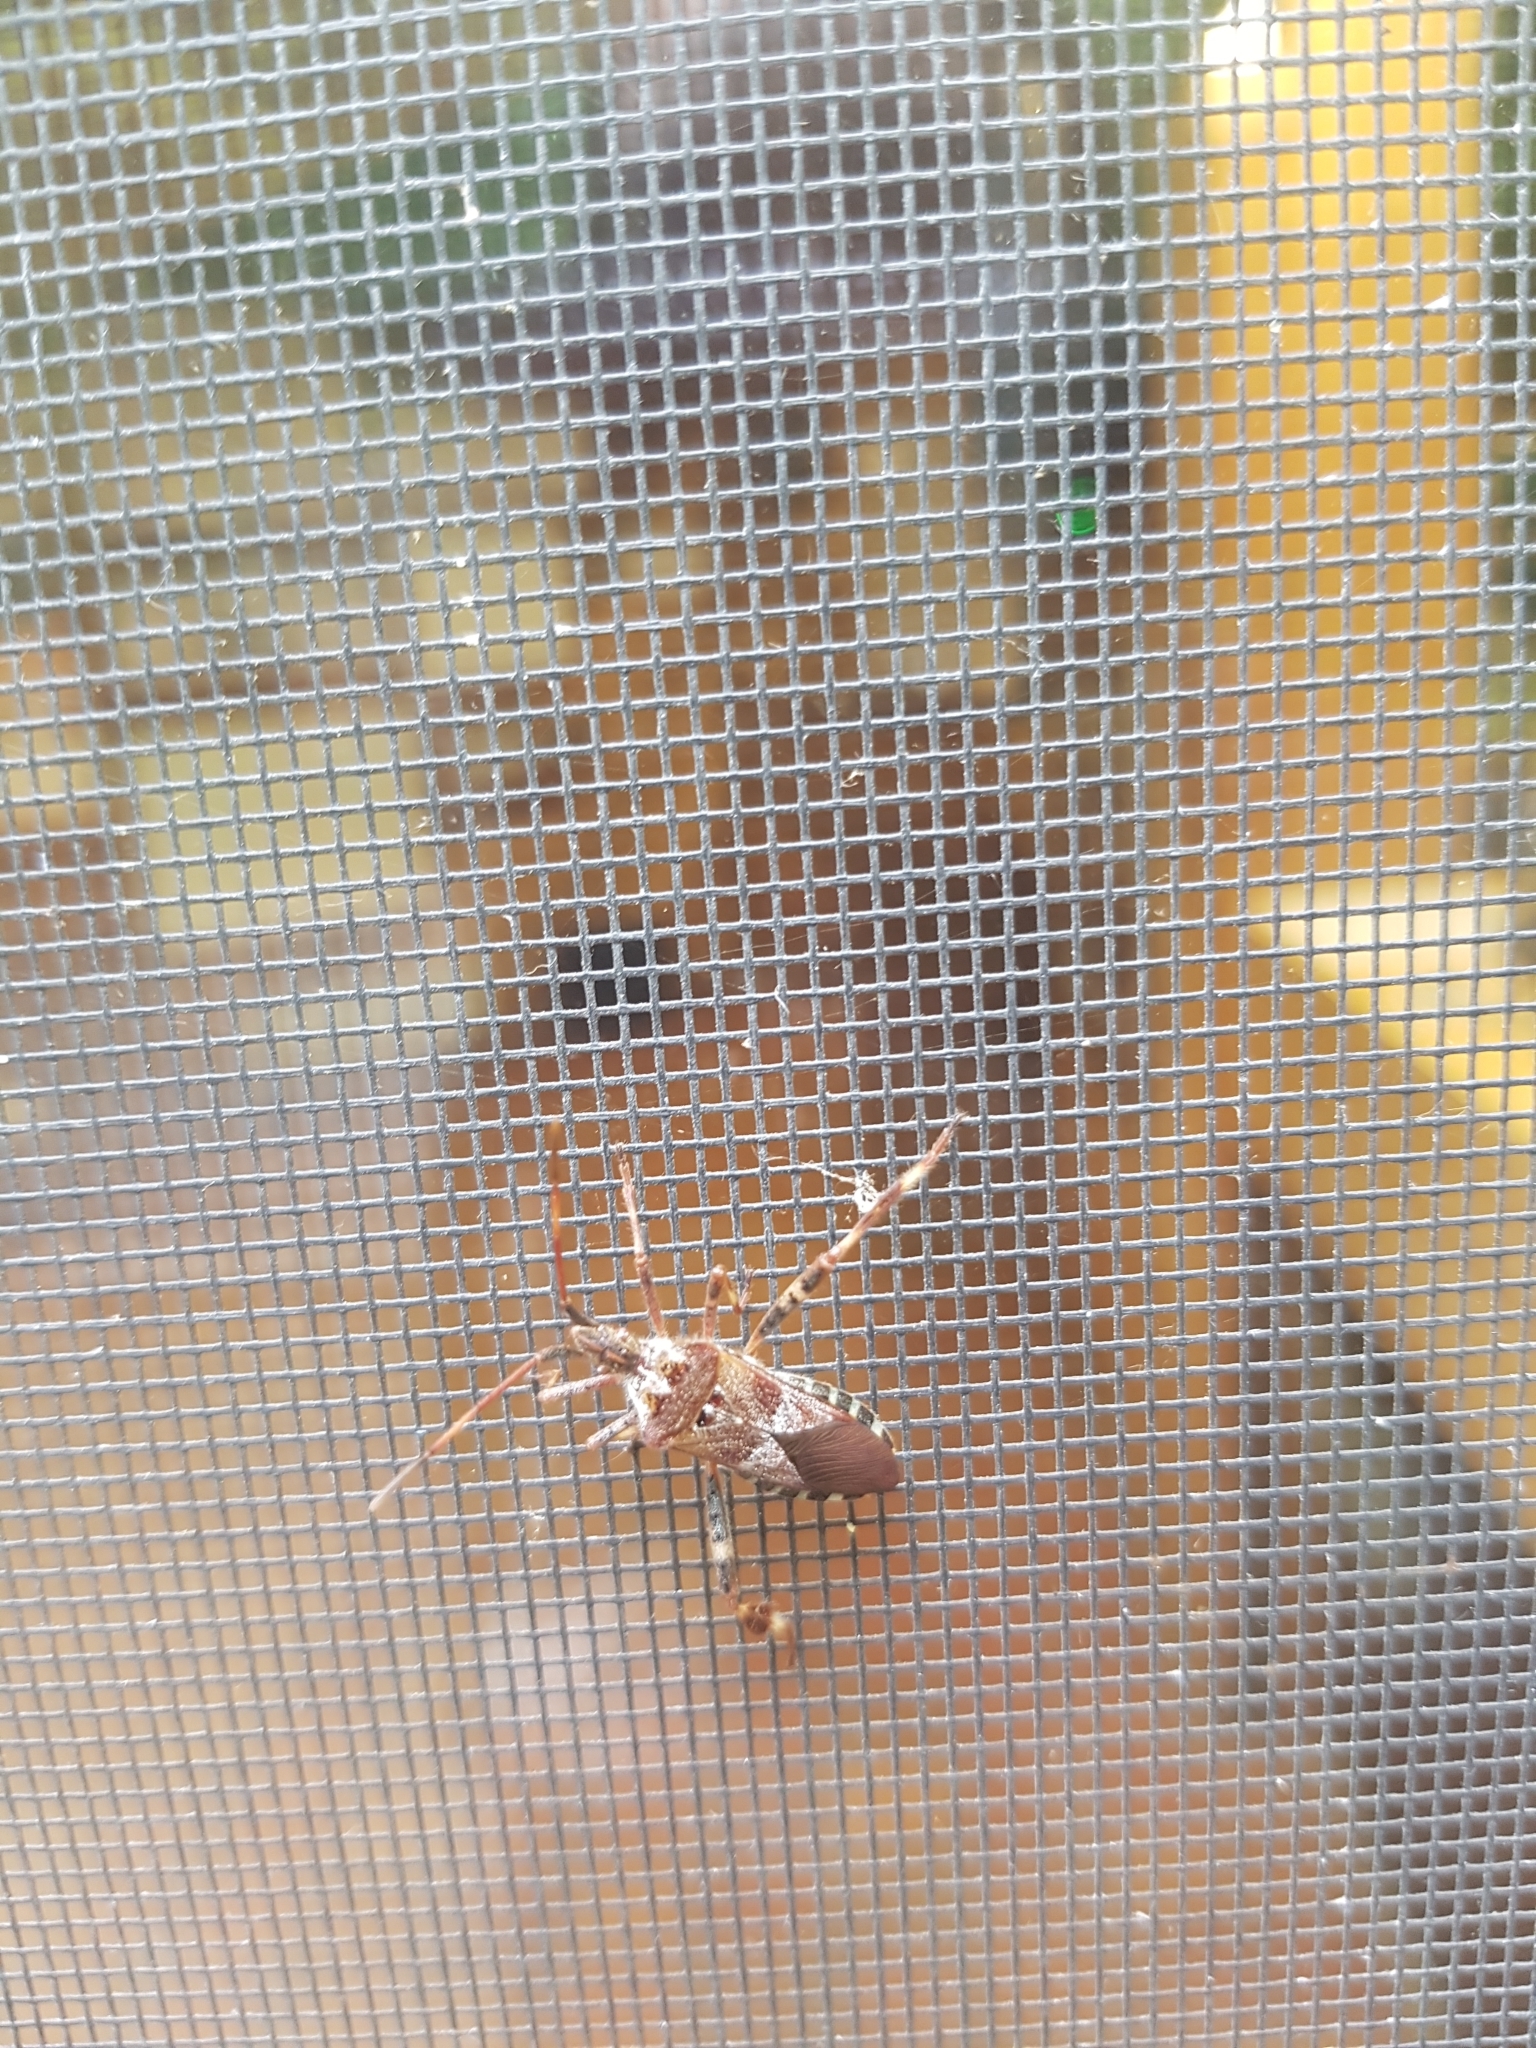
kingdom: Animalia
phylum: Arthropoda
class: Insecta
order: Hemiptera
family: Coreidae
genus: Leptoglossus
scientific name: Leptoglossus occidentalis
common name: Western conifer-seed bug
